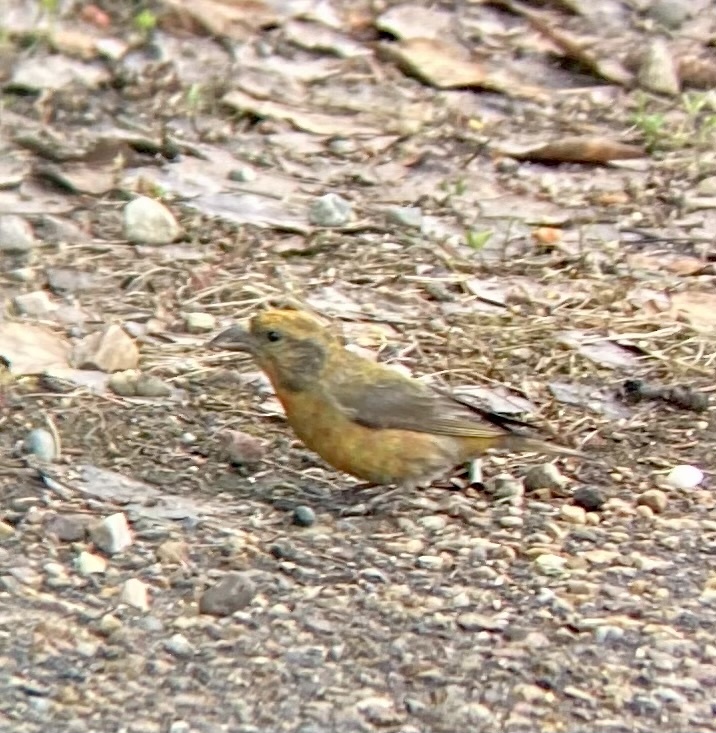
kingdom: Animalia
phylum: Chordata
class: Aves
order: Passeriformes
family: Fringillidae
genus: Loxia
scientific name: Loxia curvirostra
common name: Red crossbill
